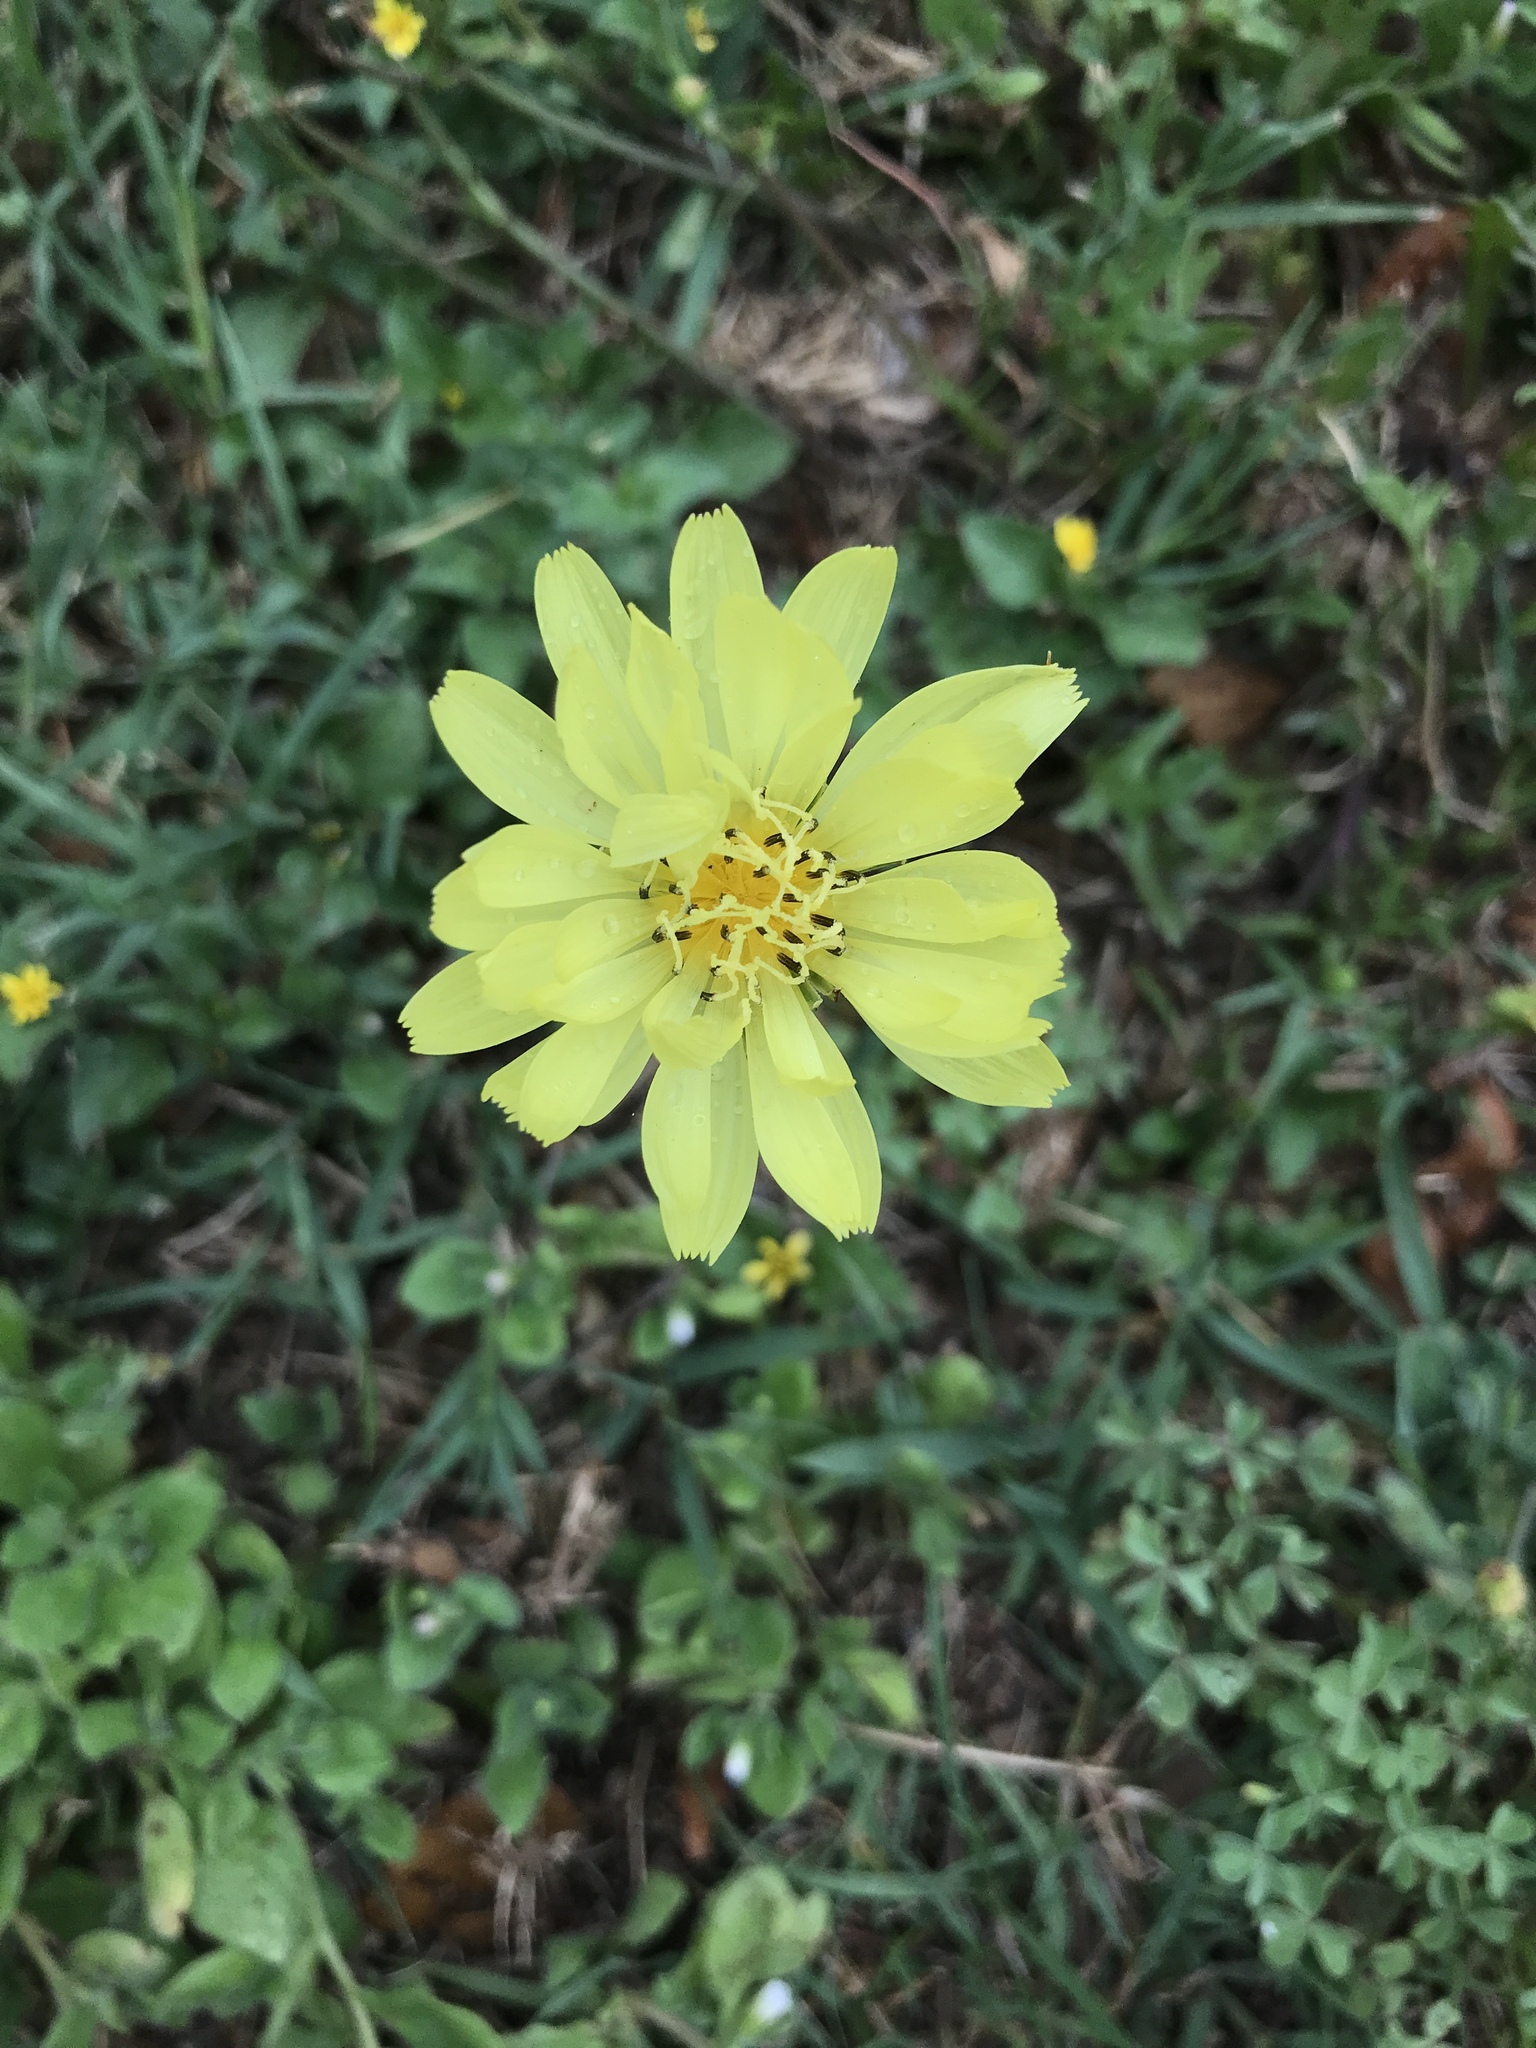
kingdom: Plantae
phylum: Tracheophyta
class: Magnoliopsida
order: Asterales
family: Asteraceae
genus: Pyrrhopappus
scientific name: Pyrrhopappus pauciflorus
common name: Texas false dandelion
